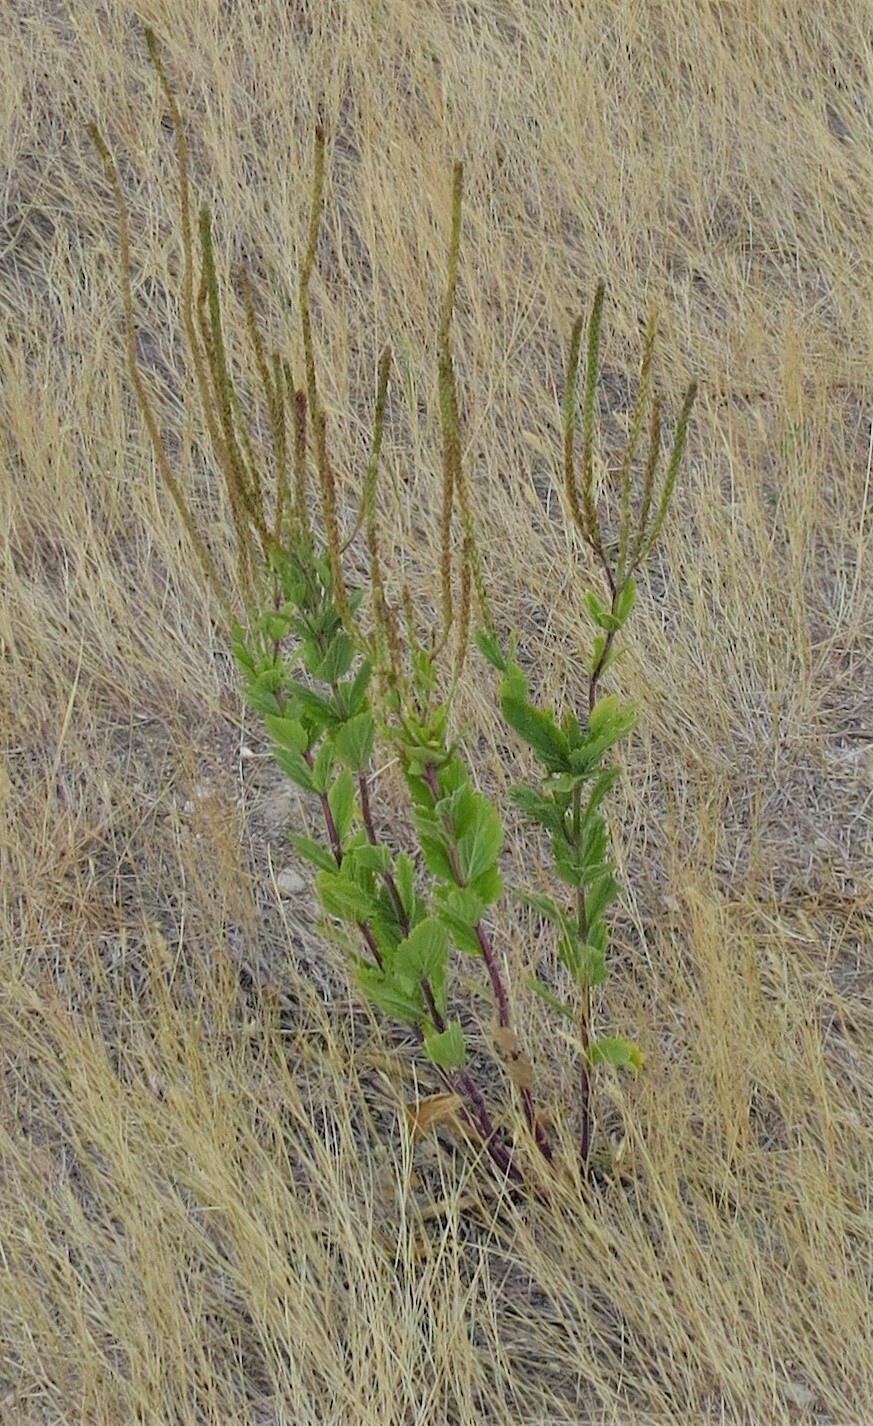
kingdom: Plantae
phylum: Tracheophyta
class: Magnoliopsida
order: Lamiales
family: Verbenaceae
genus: Verbena
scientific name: Verbena stricta
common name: Hoary vervain
